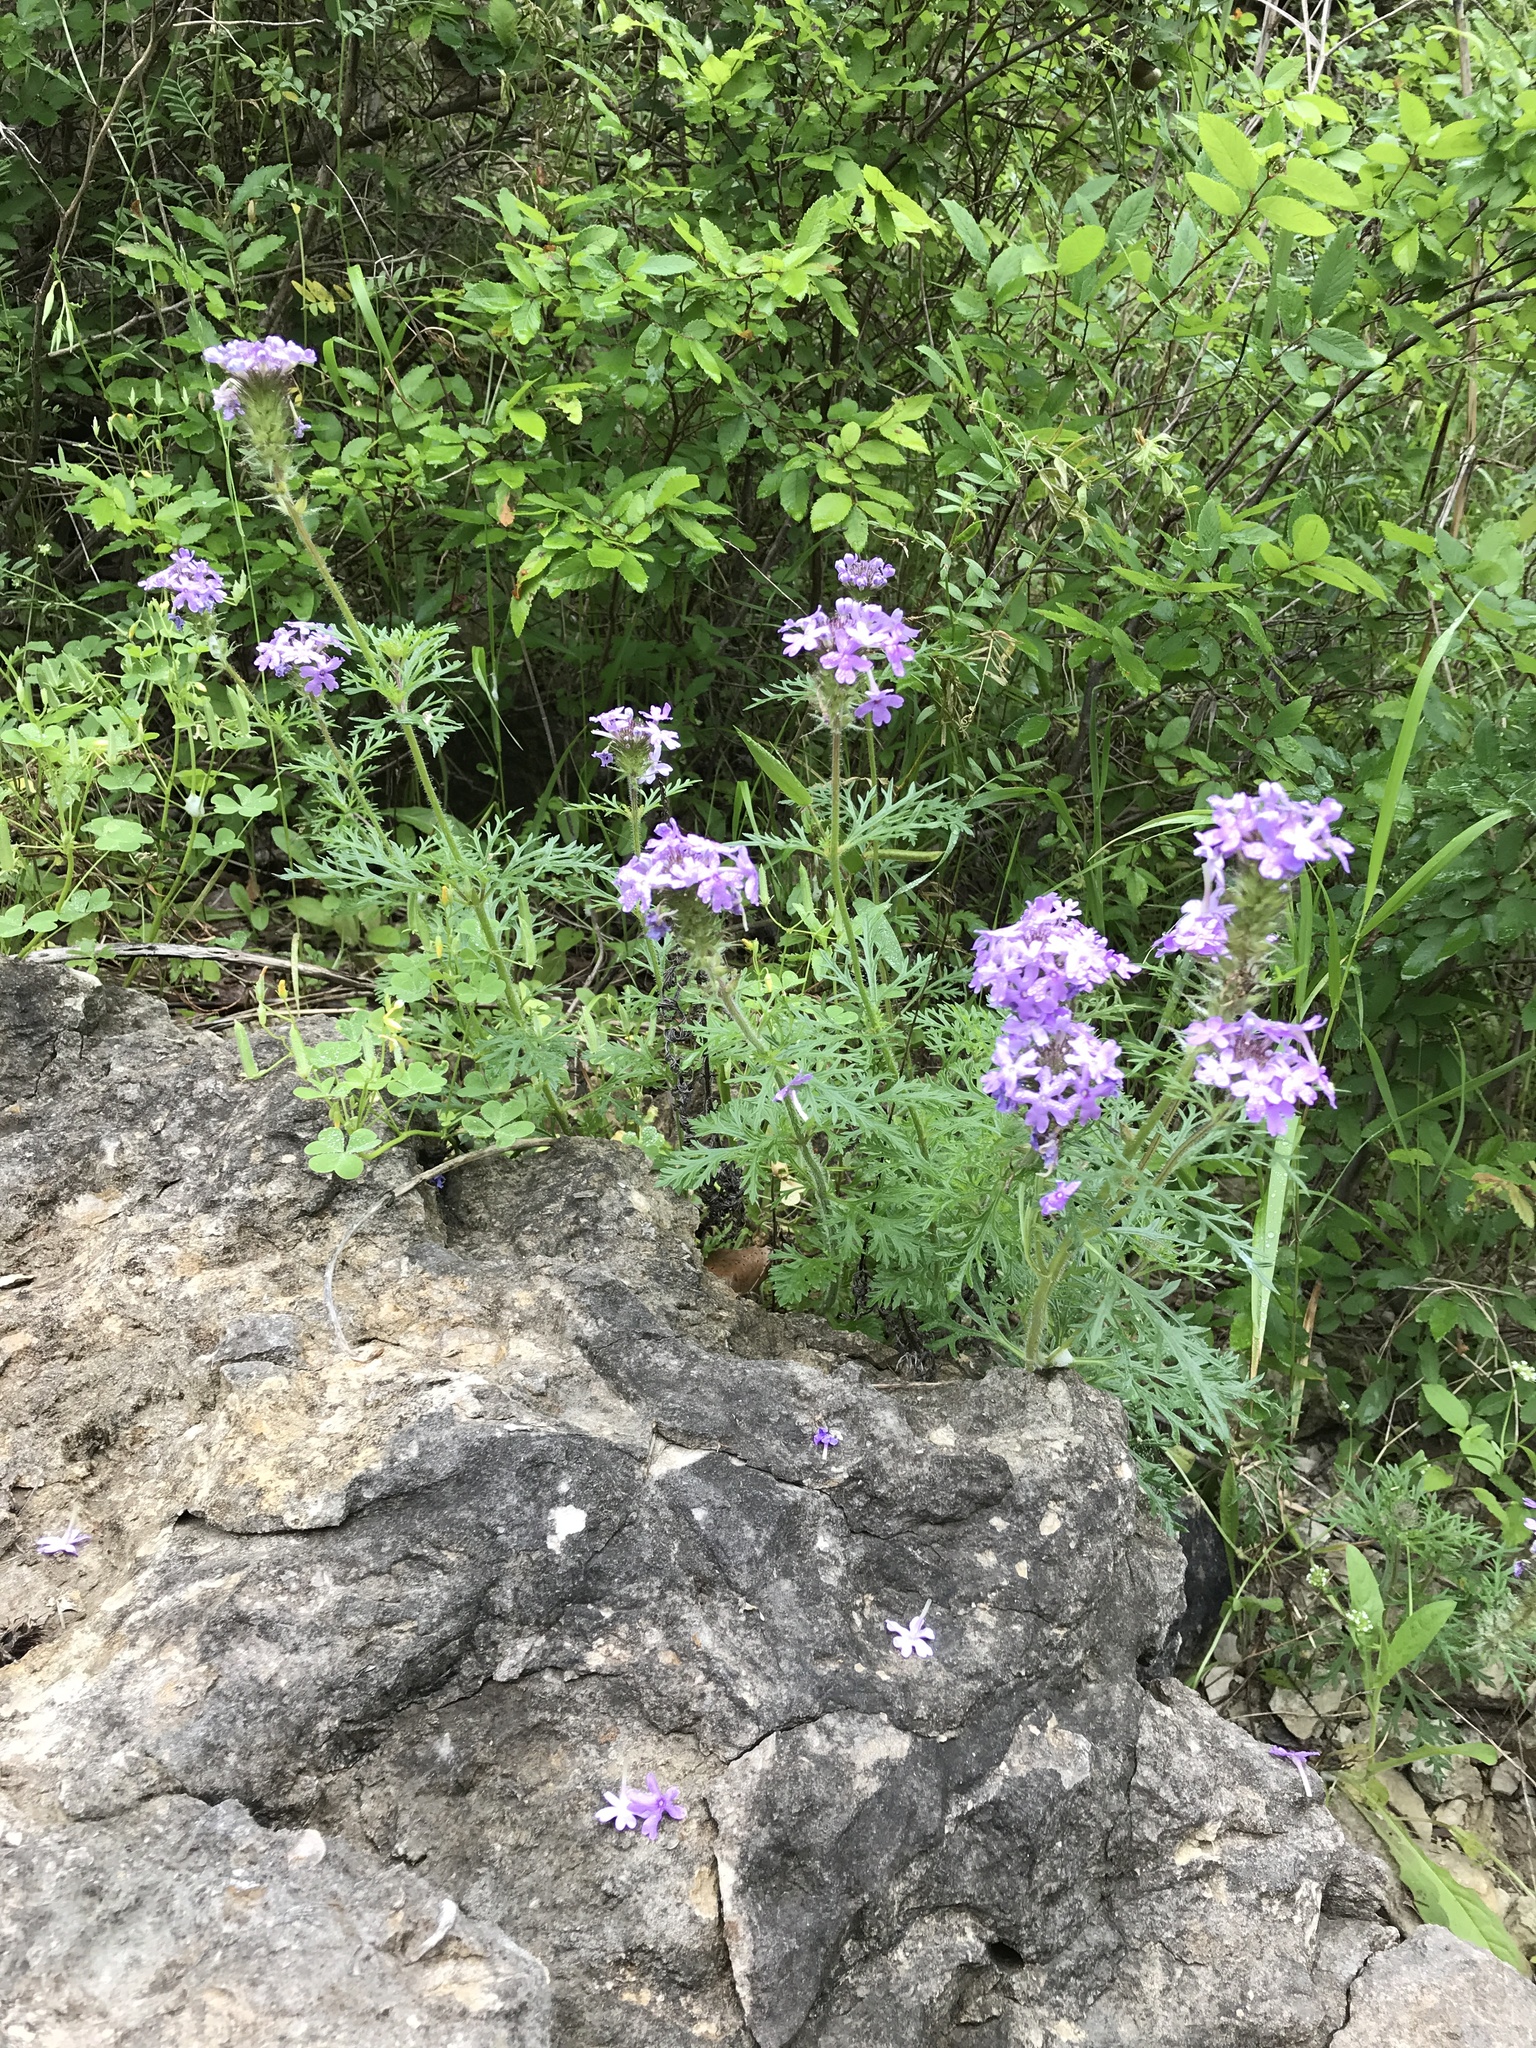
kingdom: Plantae
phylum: Tracheophyta
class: Magnoliopsida
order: Lamiales
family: Verbenaceae
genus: Verbena
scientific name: Verbena bipinnatifida
